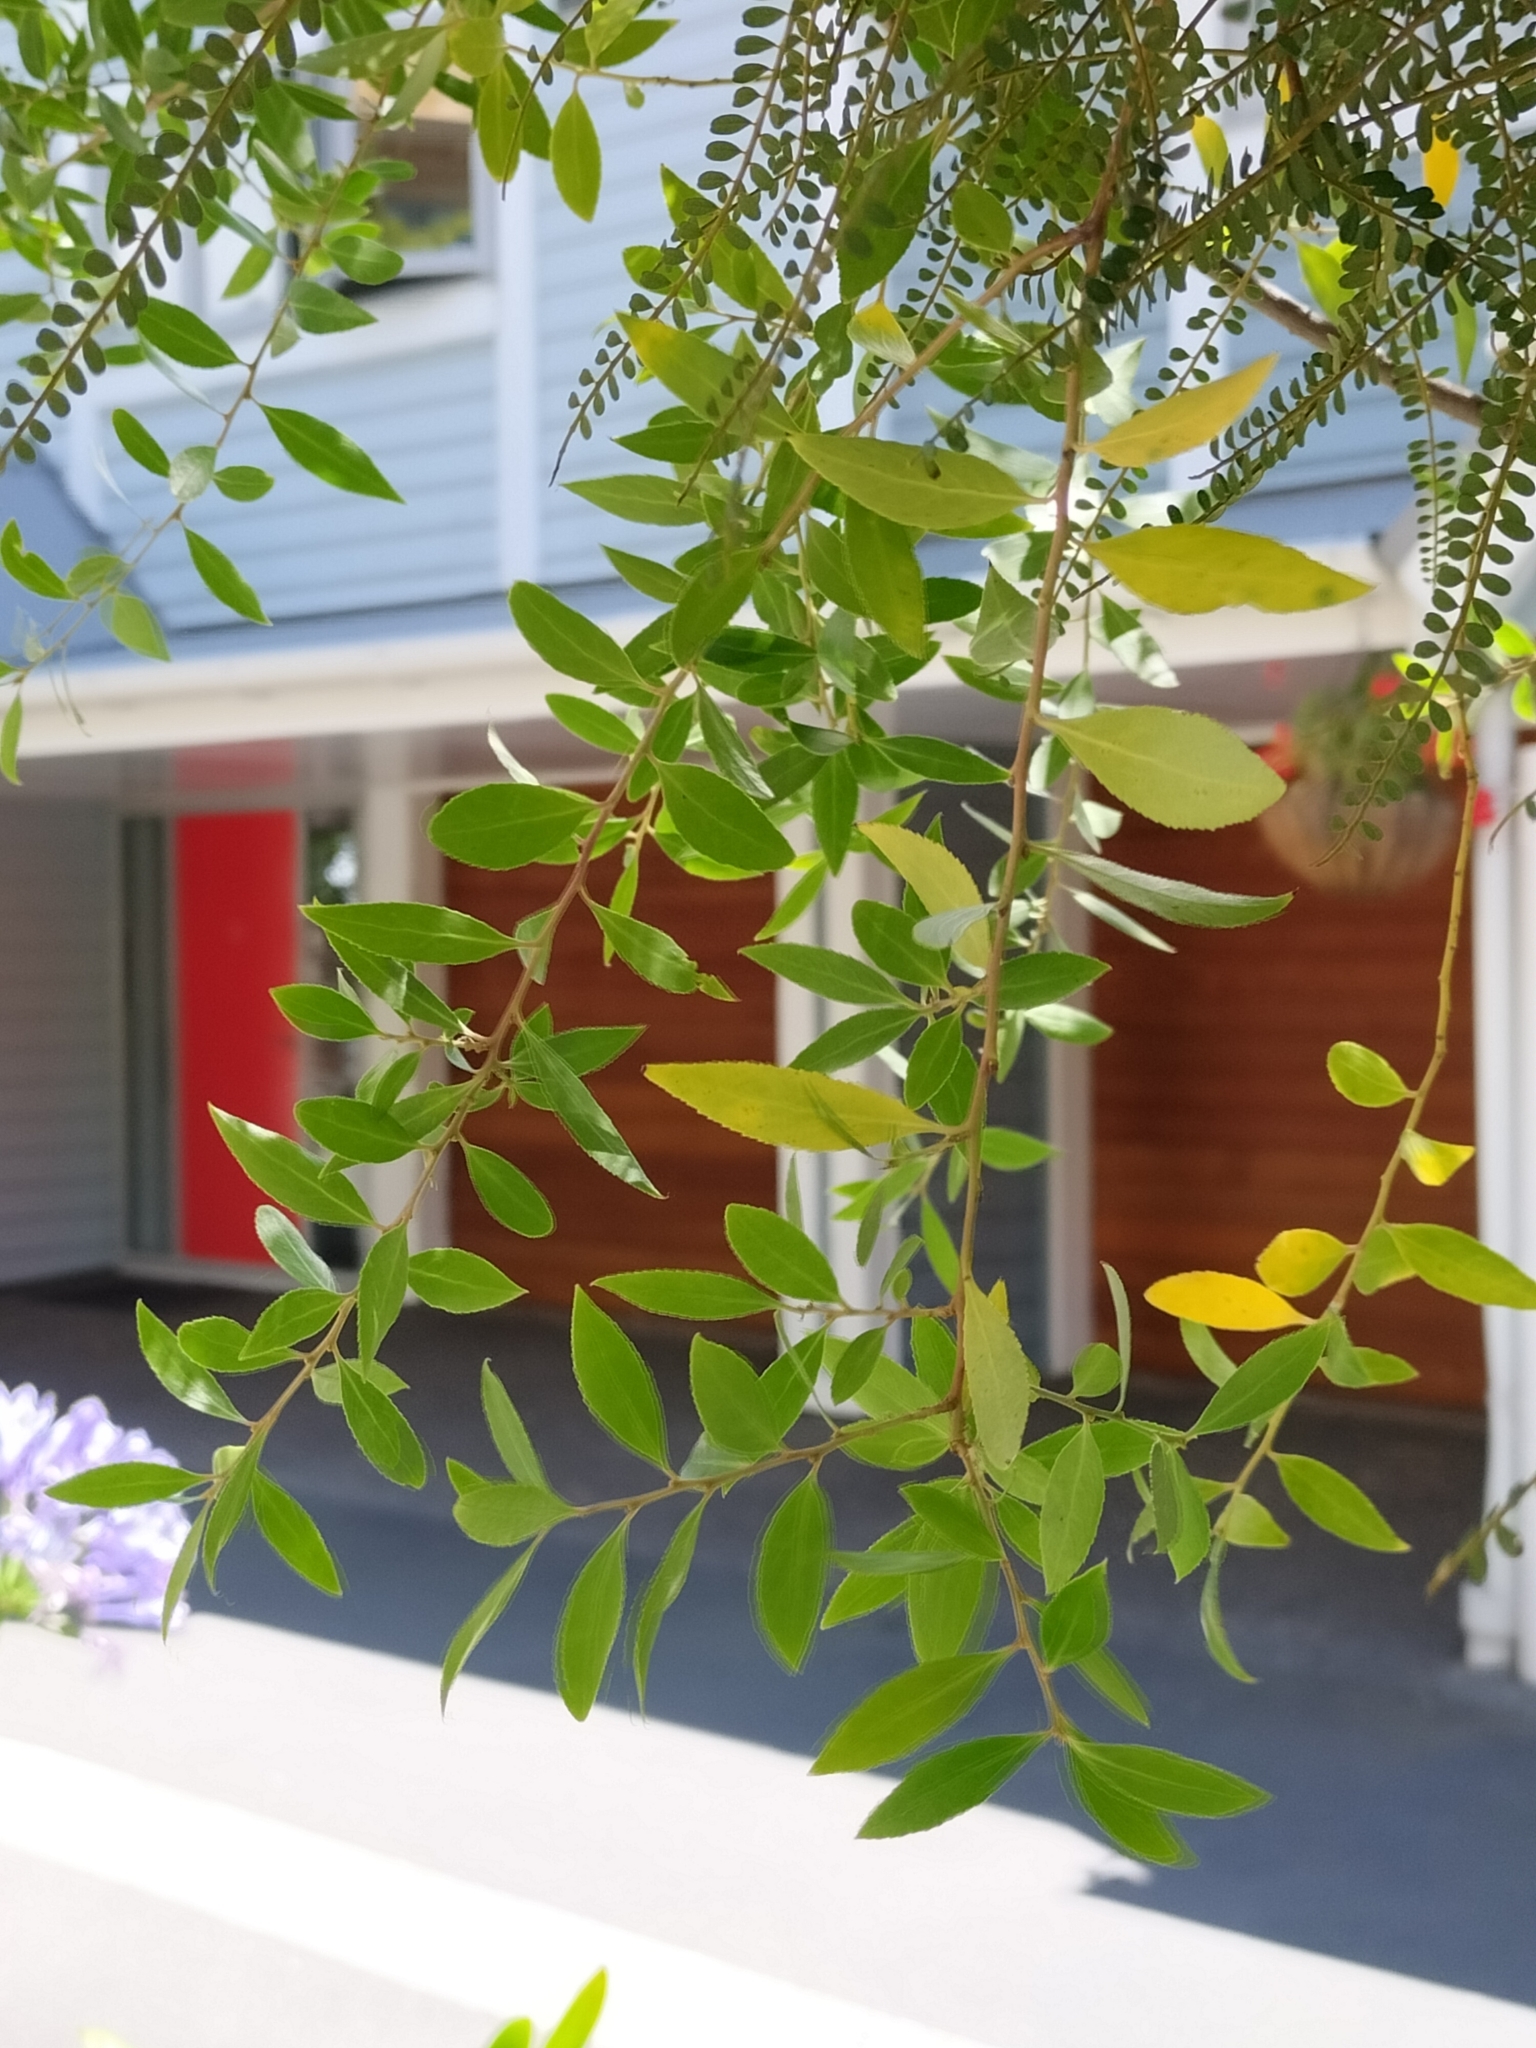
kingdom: Plantae
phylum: Tracheophyta
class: Magnoliopsida
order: Celastrales
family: Celastraceae
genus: Maytenus
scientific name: Maytenus boaria
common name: Mayten
